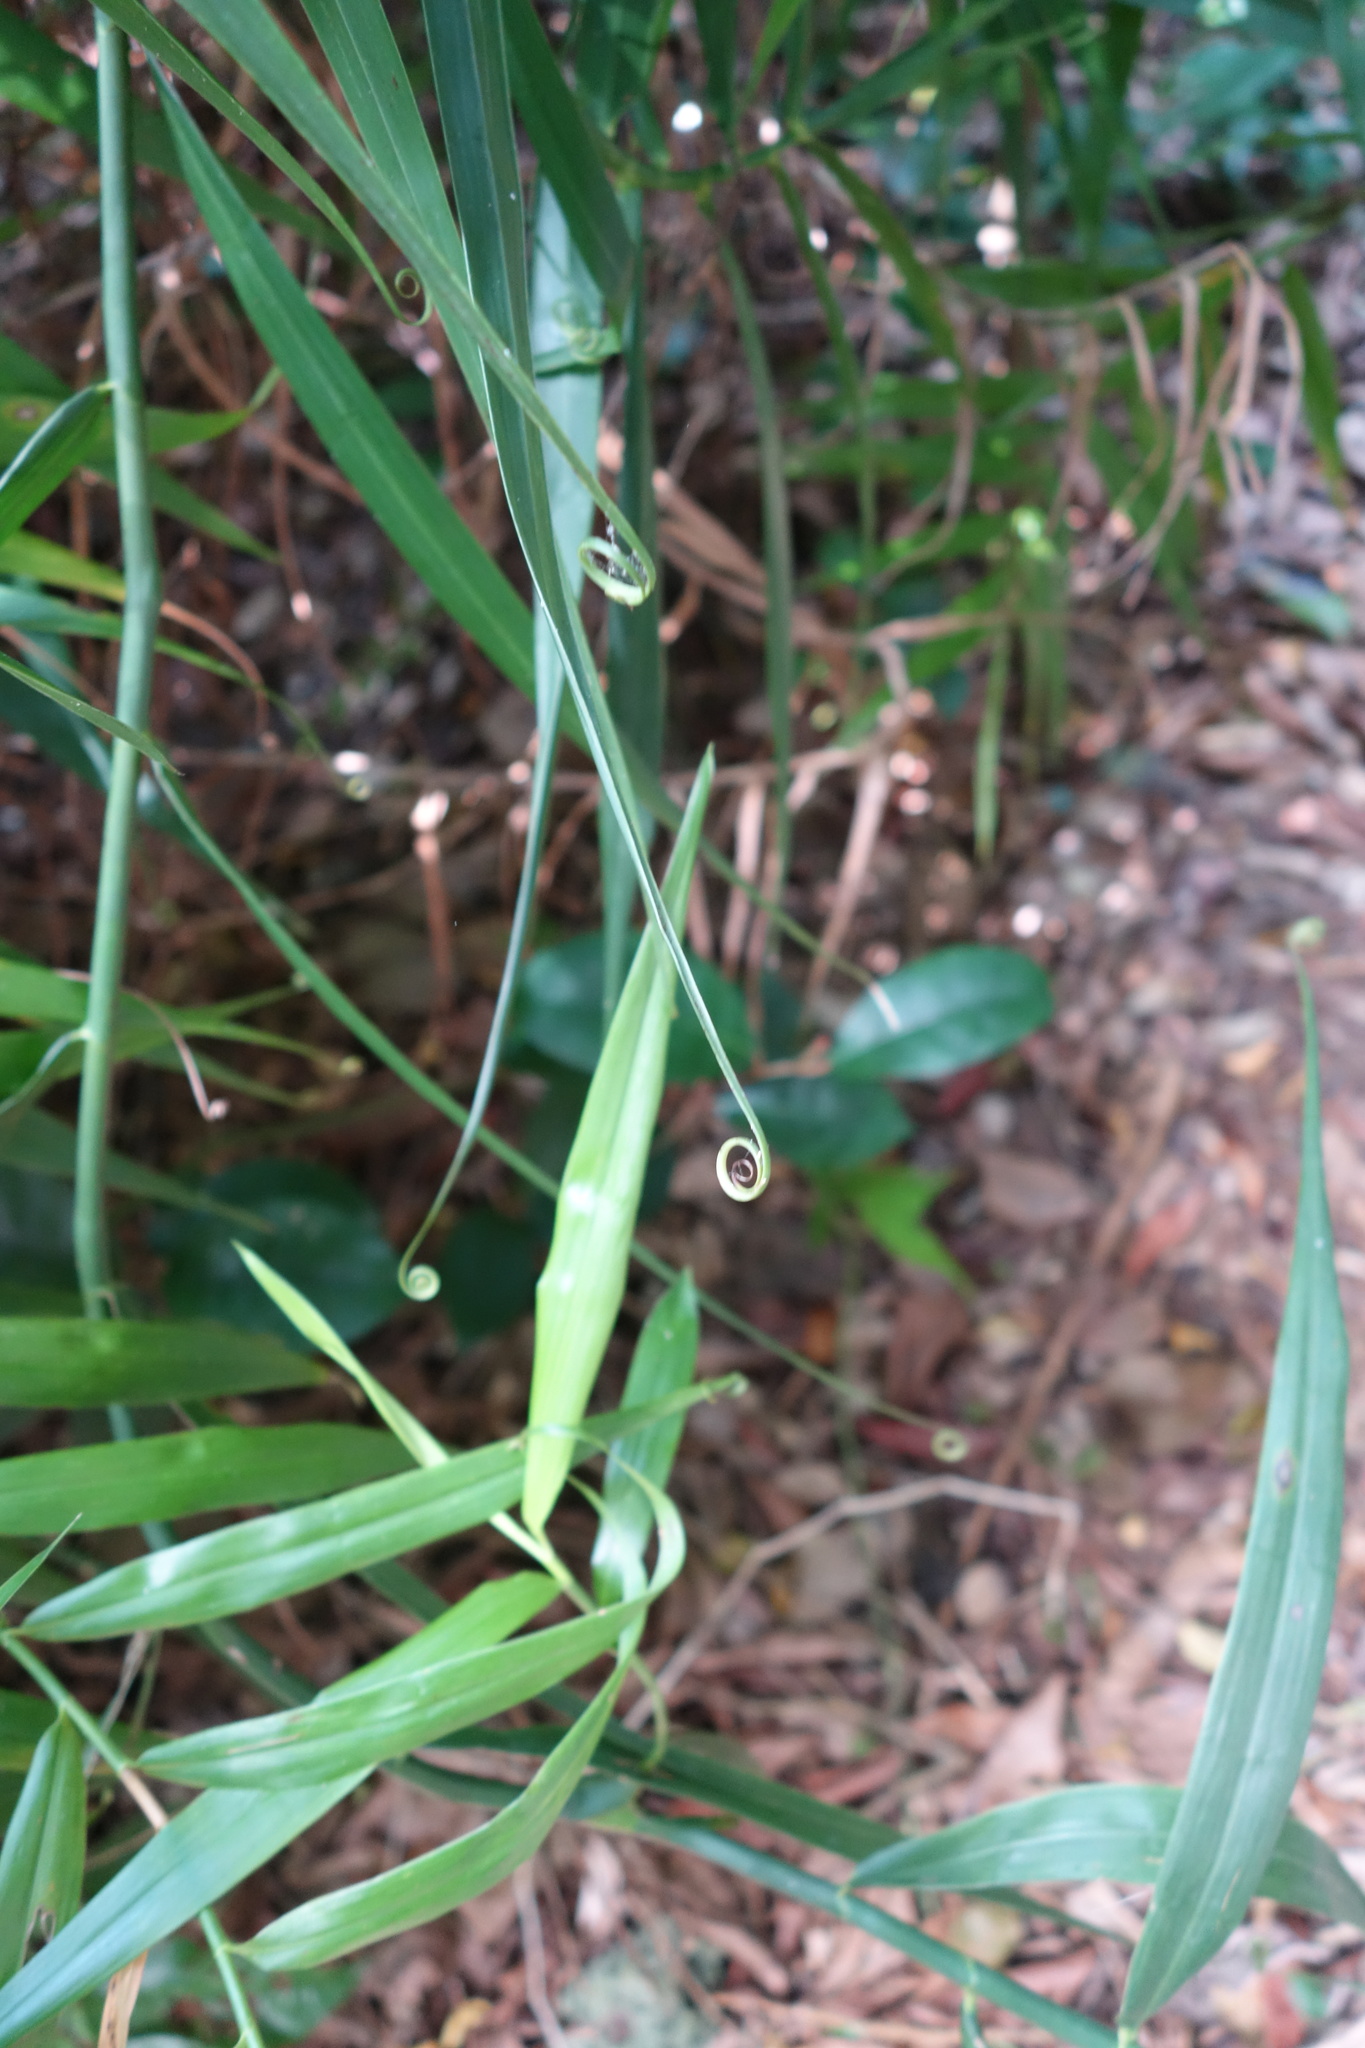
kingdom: Plantae
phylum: Tracheophyta
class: Liliopsida
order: Poales
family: Flagellariaceae
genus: Flagellaria
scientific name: Flagellaria indica
